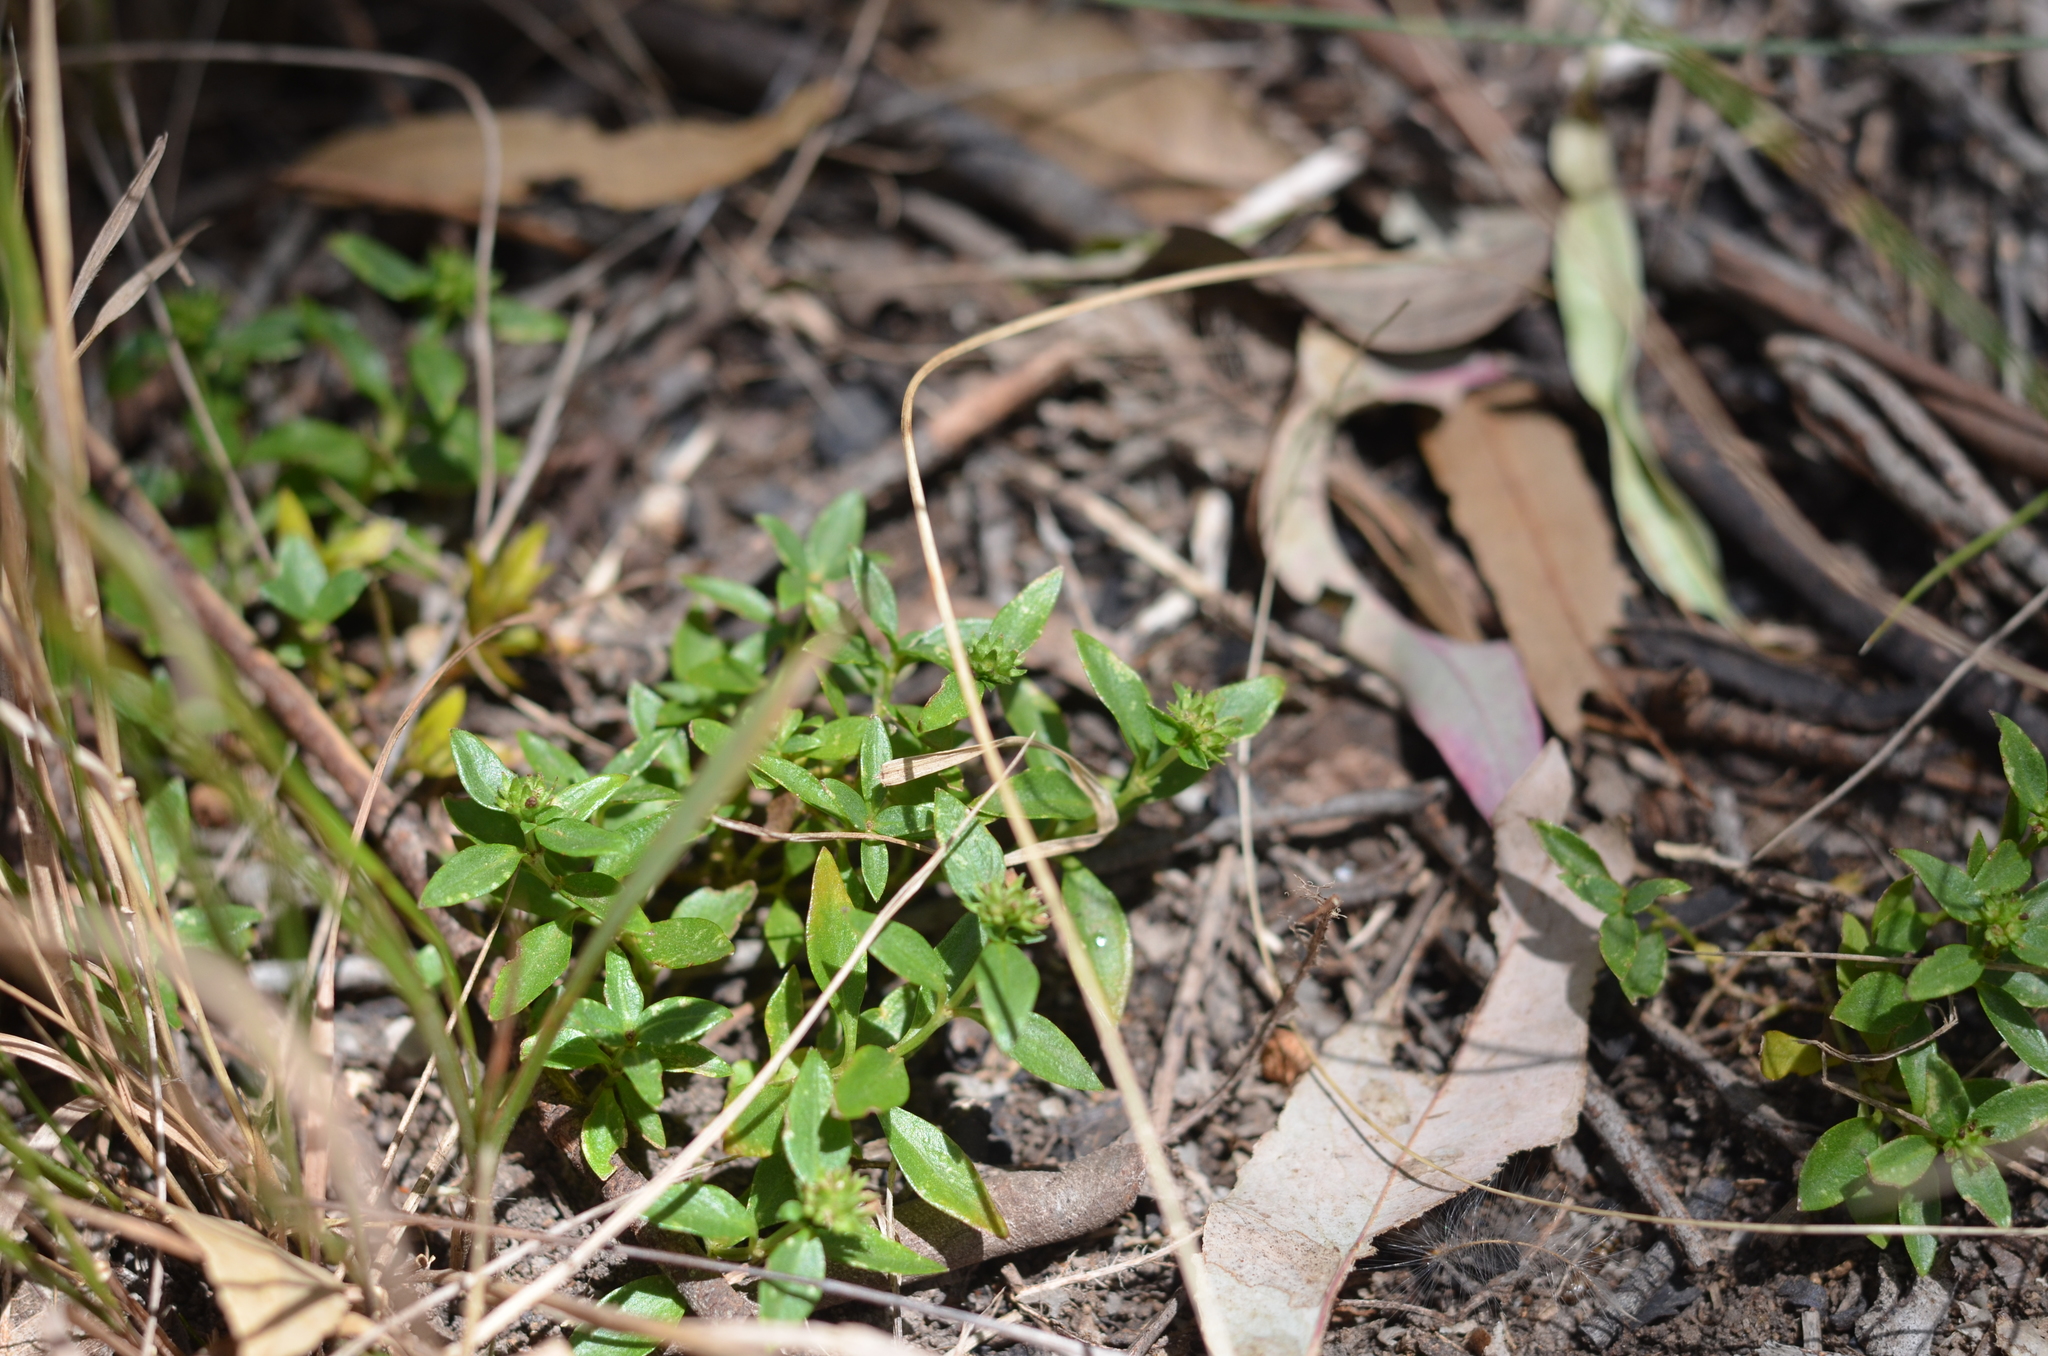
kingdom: Plantae
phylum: Tracheophyta
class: Magnoliopsida
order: Gentianales
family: Rubiaceae
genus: Opercularia
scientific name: Opercularia ovata
